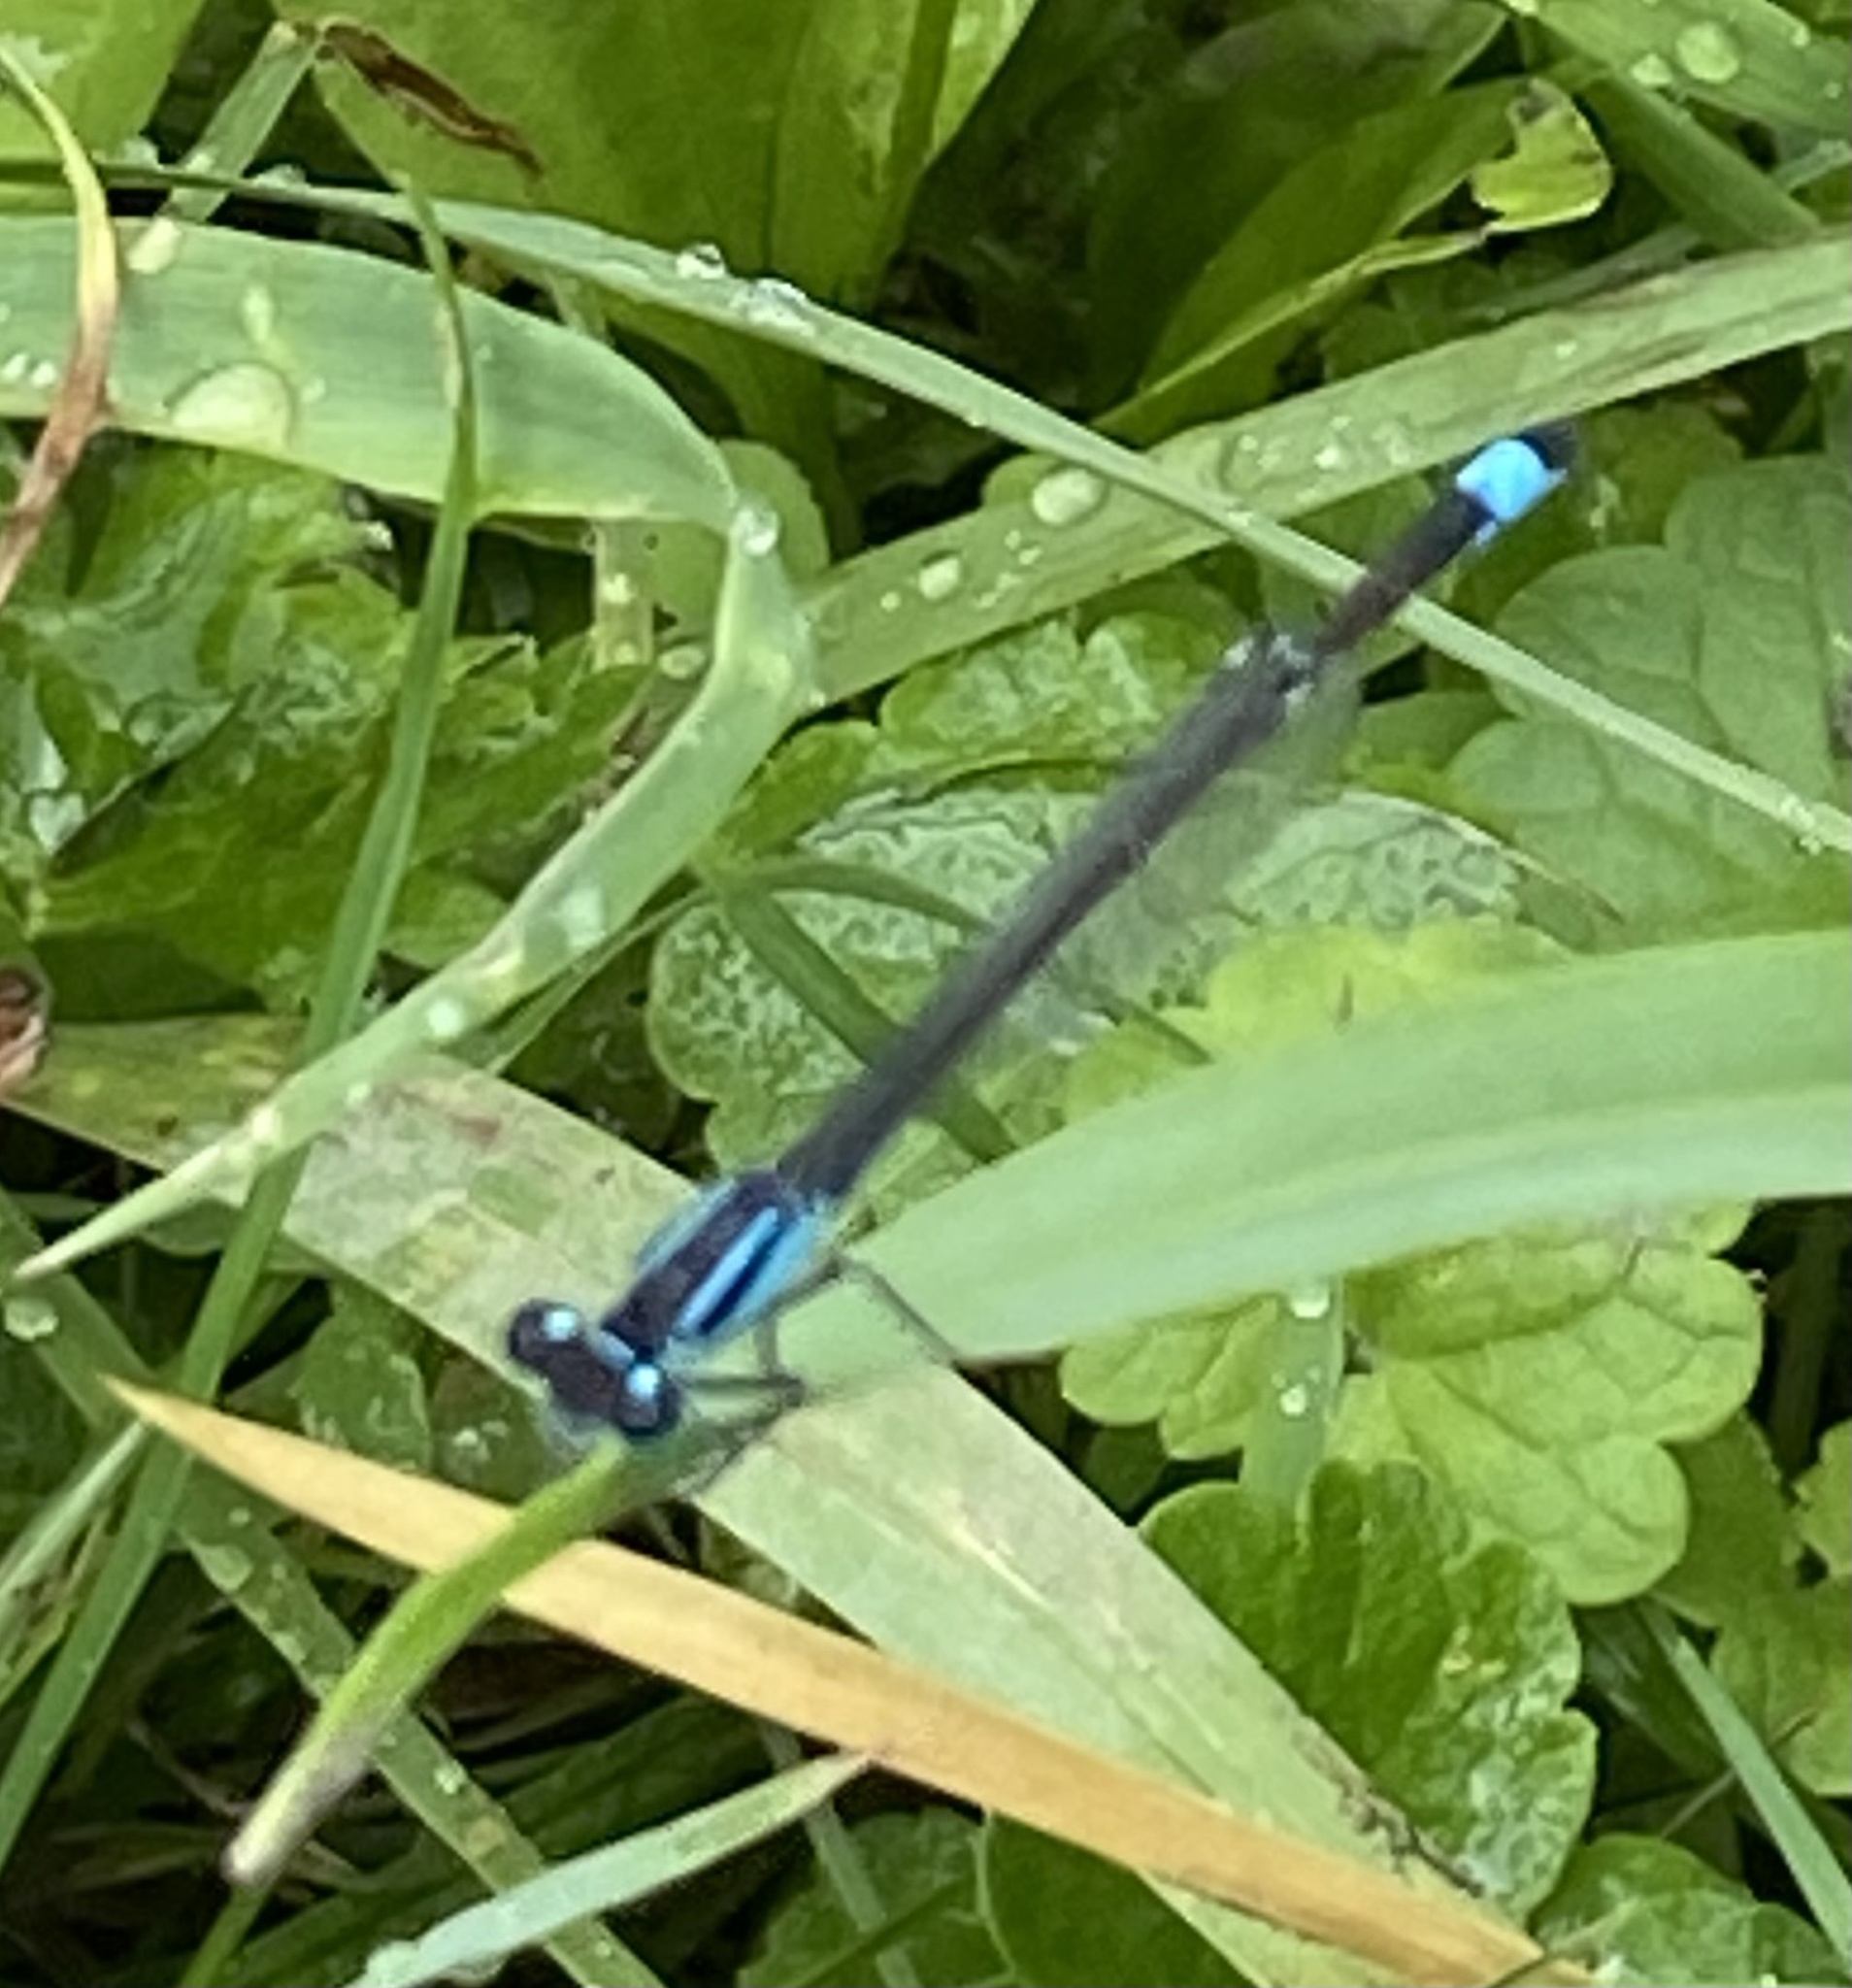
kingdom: Animalia
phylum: Arthropoda
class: Insecta
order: Odonata
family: Coenagrionidae
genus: Ischnura
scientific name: Ischnura elegans
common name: Blue-tailed damselfly
